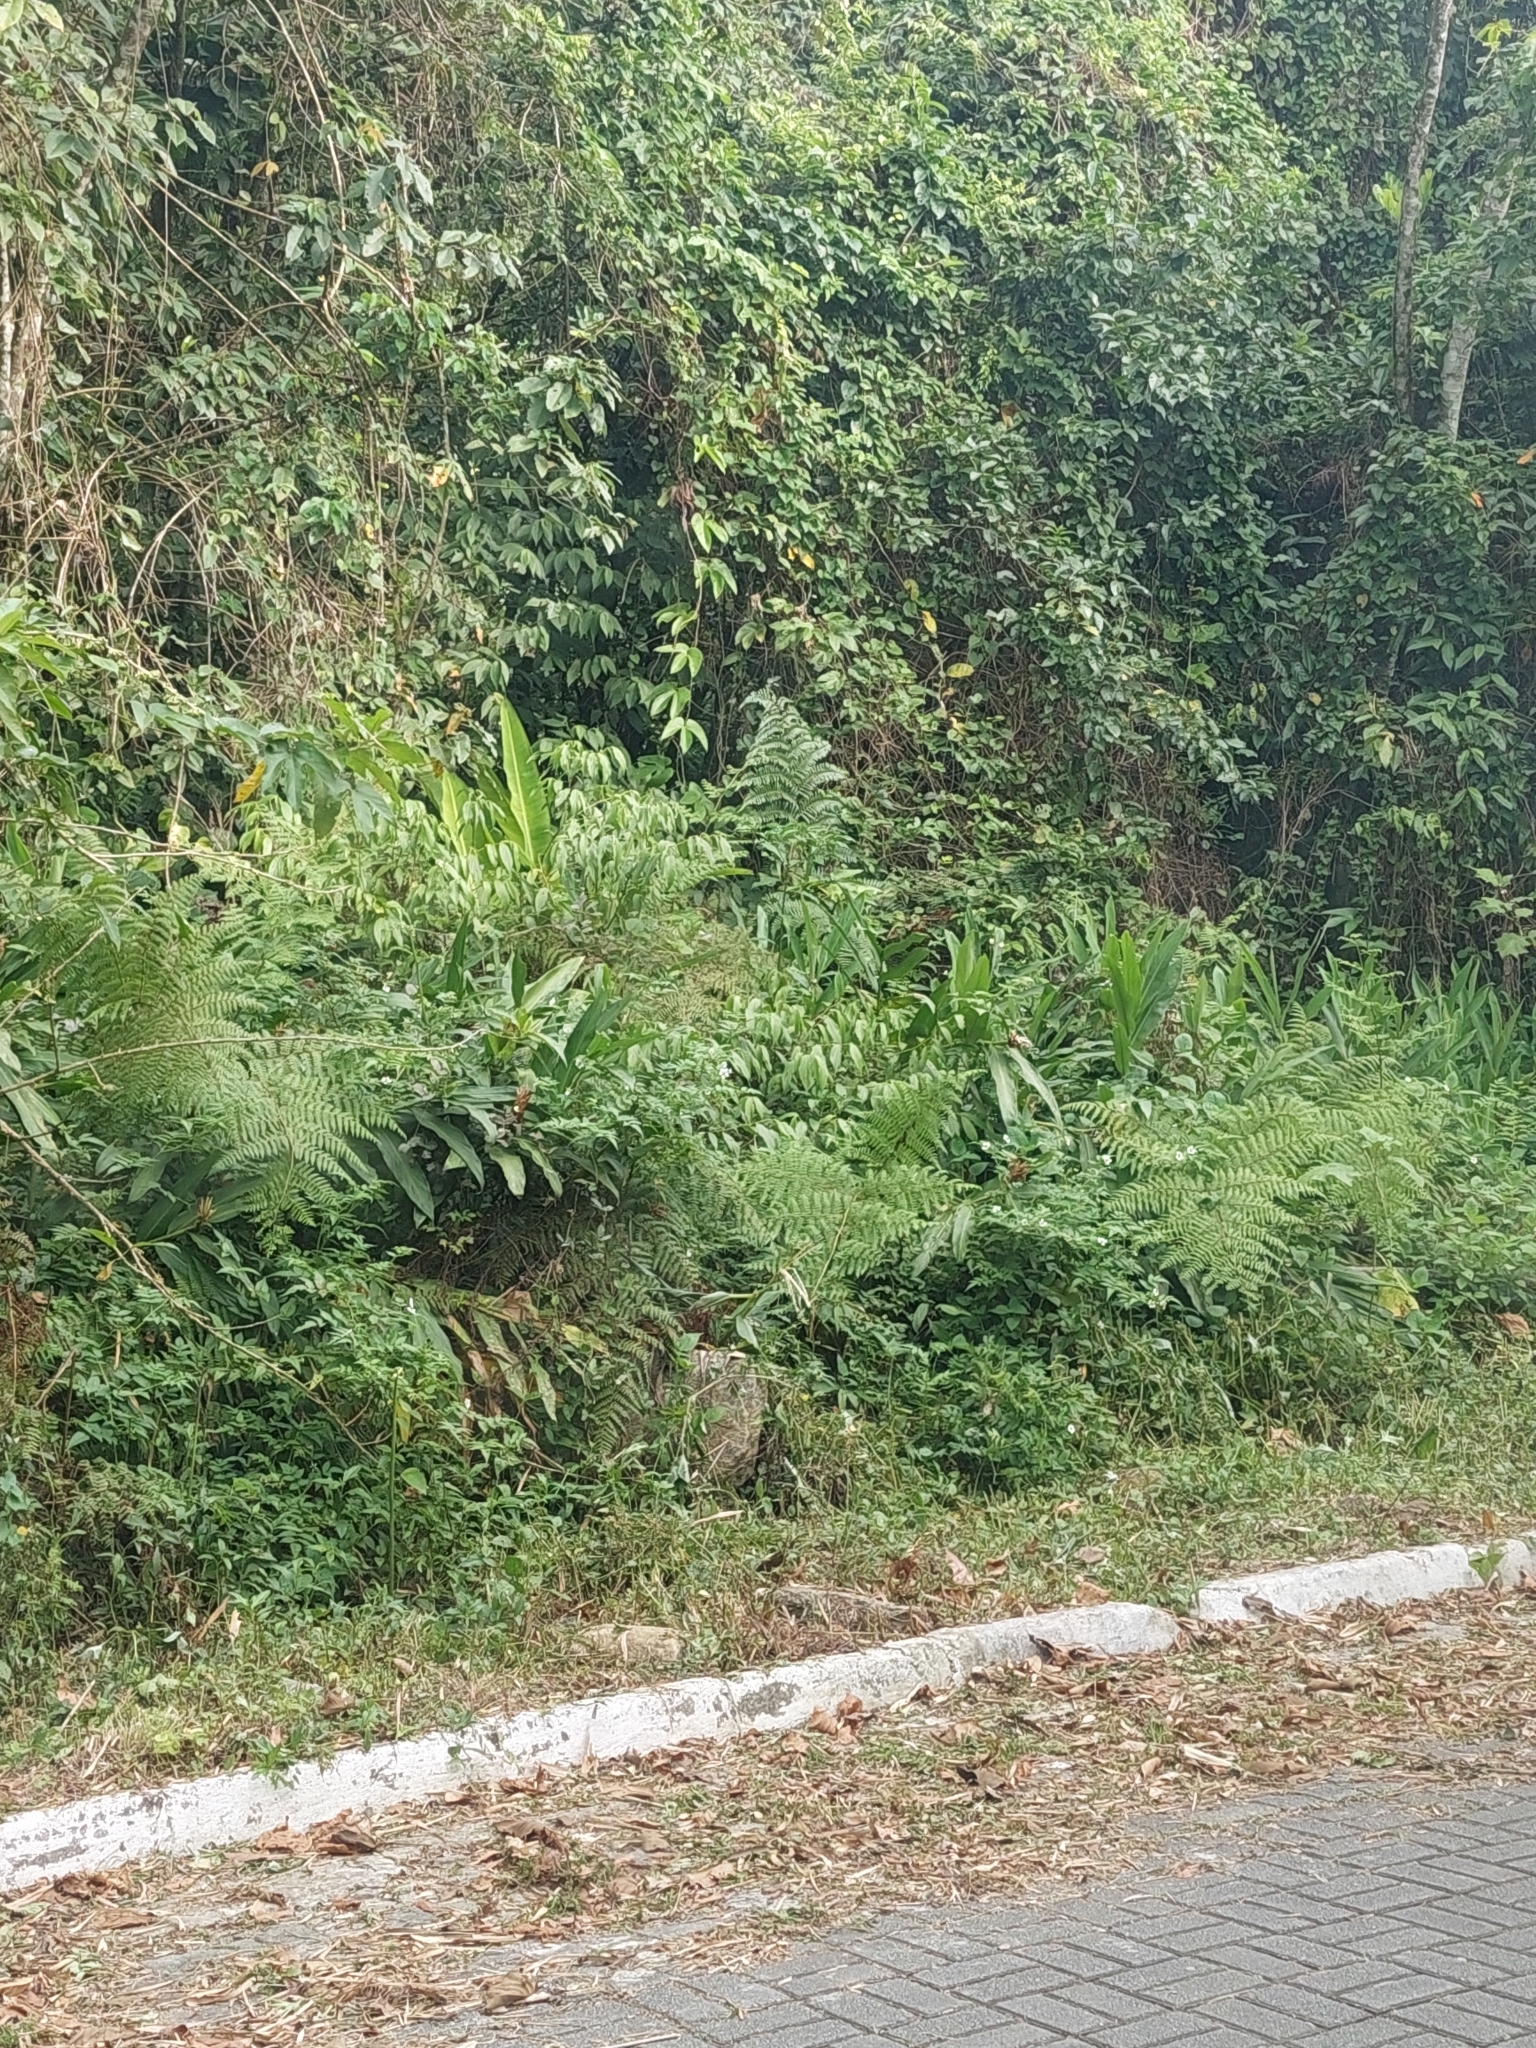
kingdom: Plantae
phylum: Tracheophyta
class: Liliopsida
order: Zingiberales
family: Zingiberaceae
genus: Hedychium
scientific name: Hedychium coronarium
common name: White garland-lily
